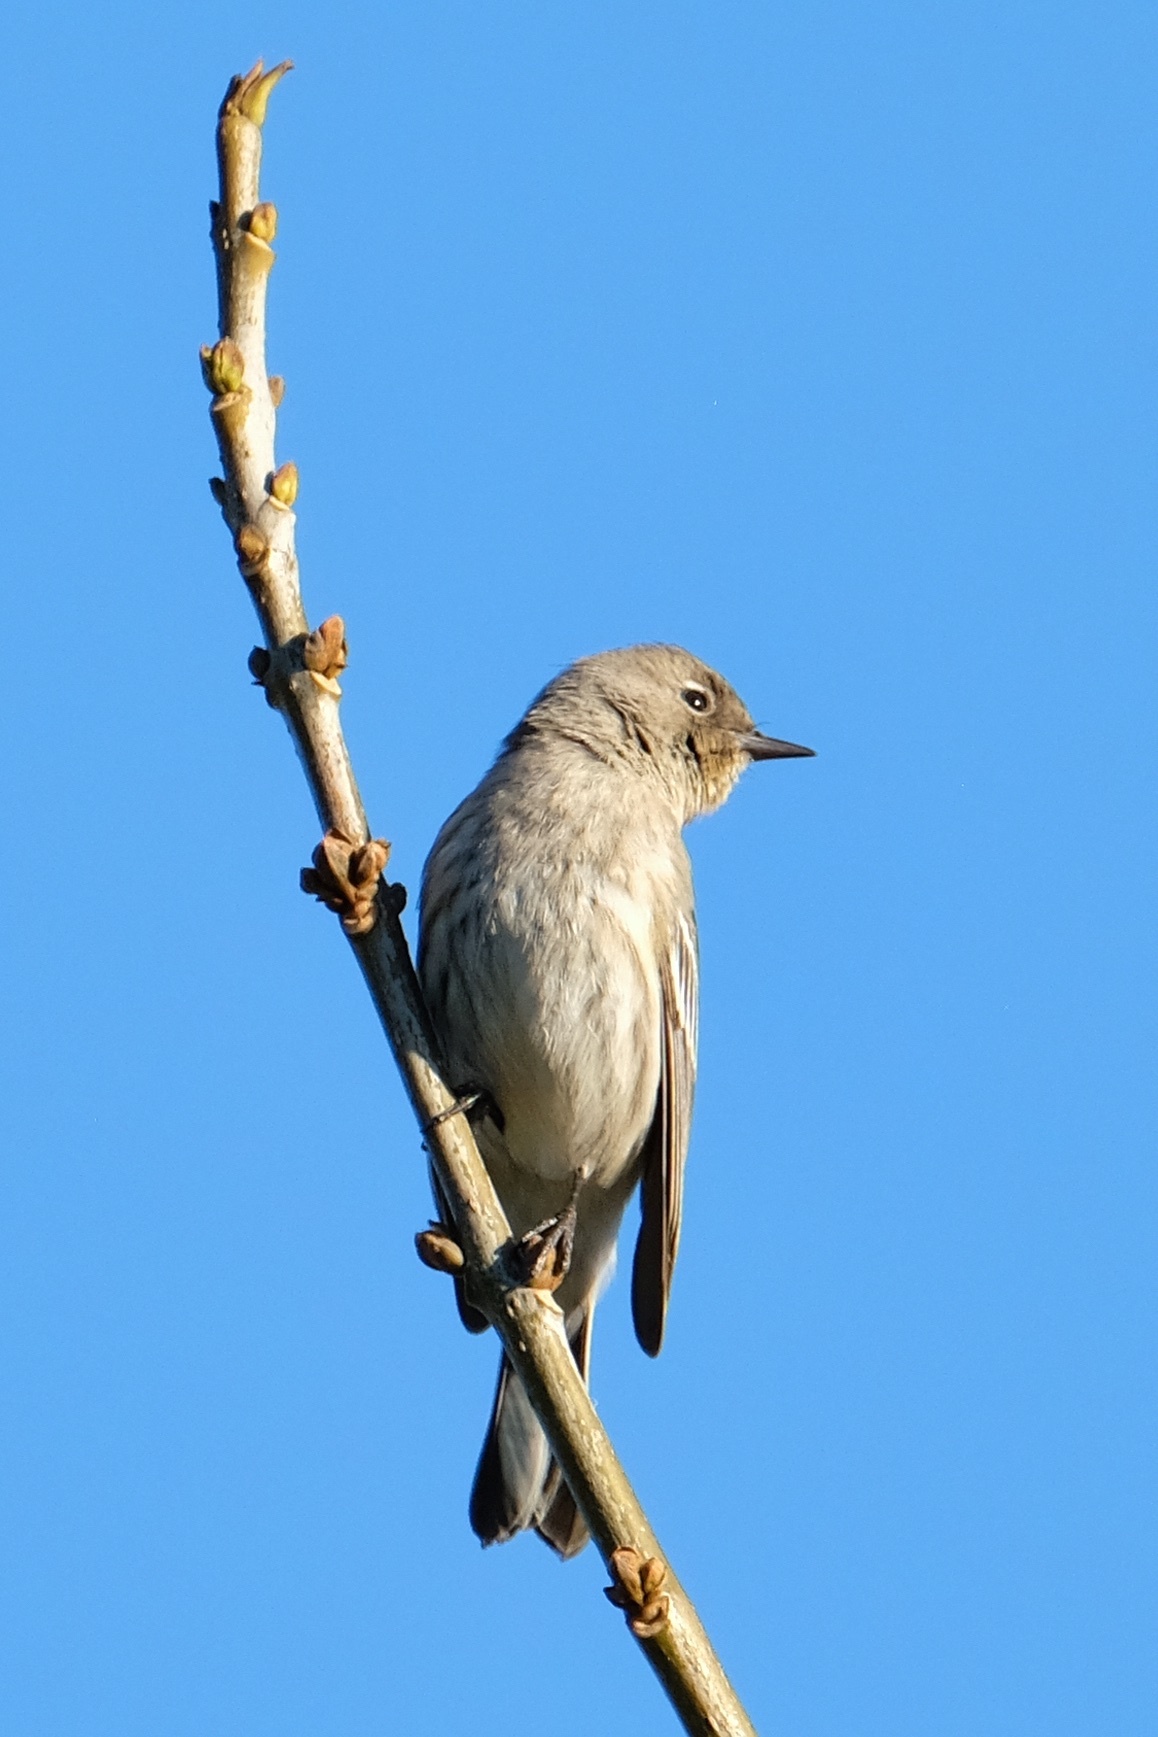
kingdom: Animalia
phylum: Chordata
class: Aves
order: Passeriformes
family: Parulidae
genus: Setophaga
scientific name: Setophaga auduboni
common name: Audubon's warbler
